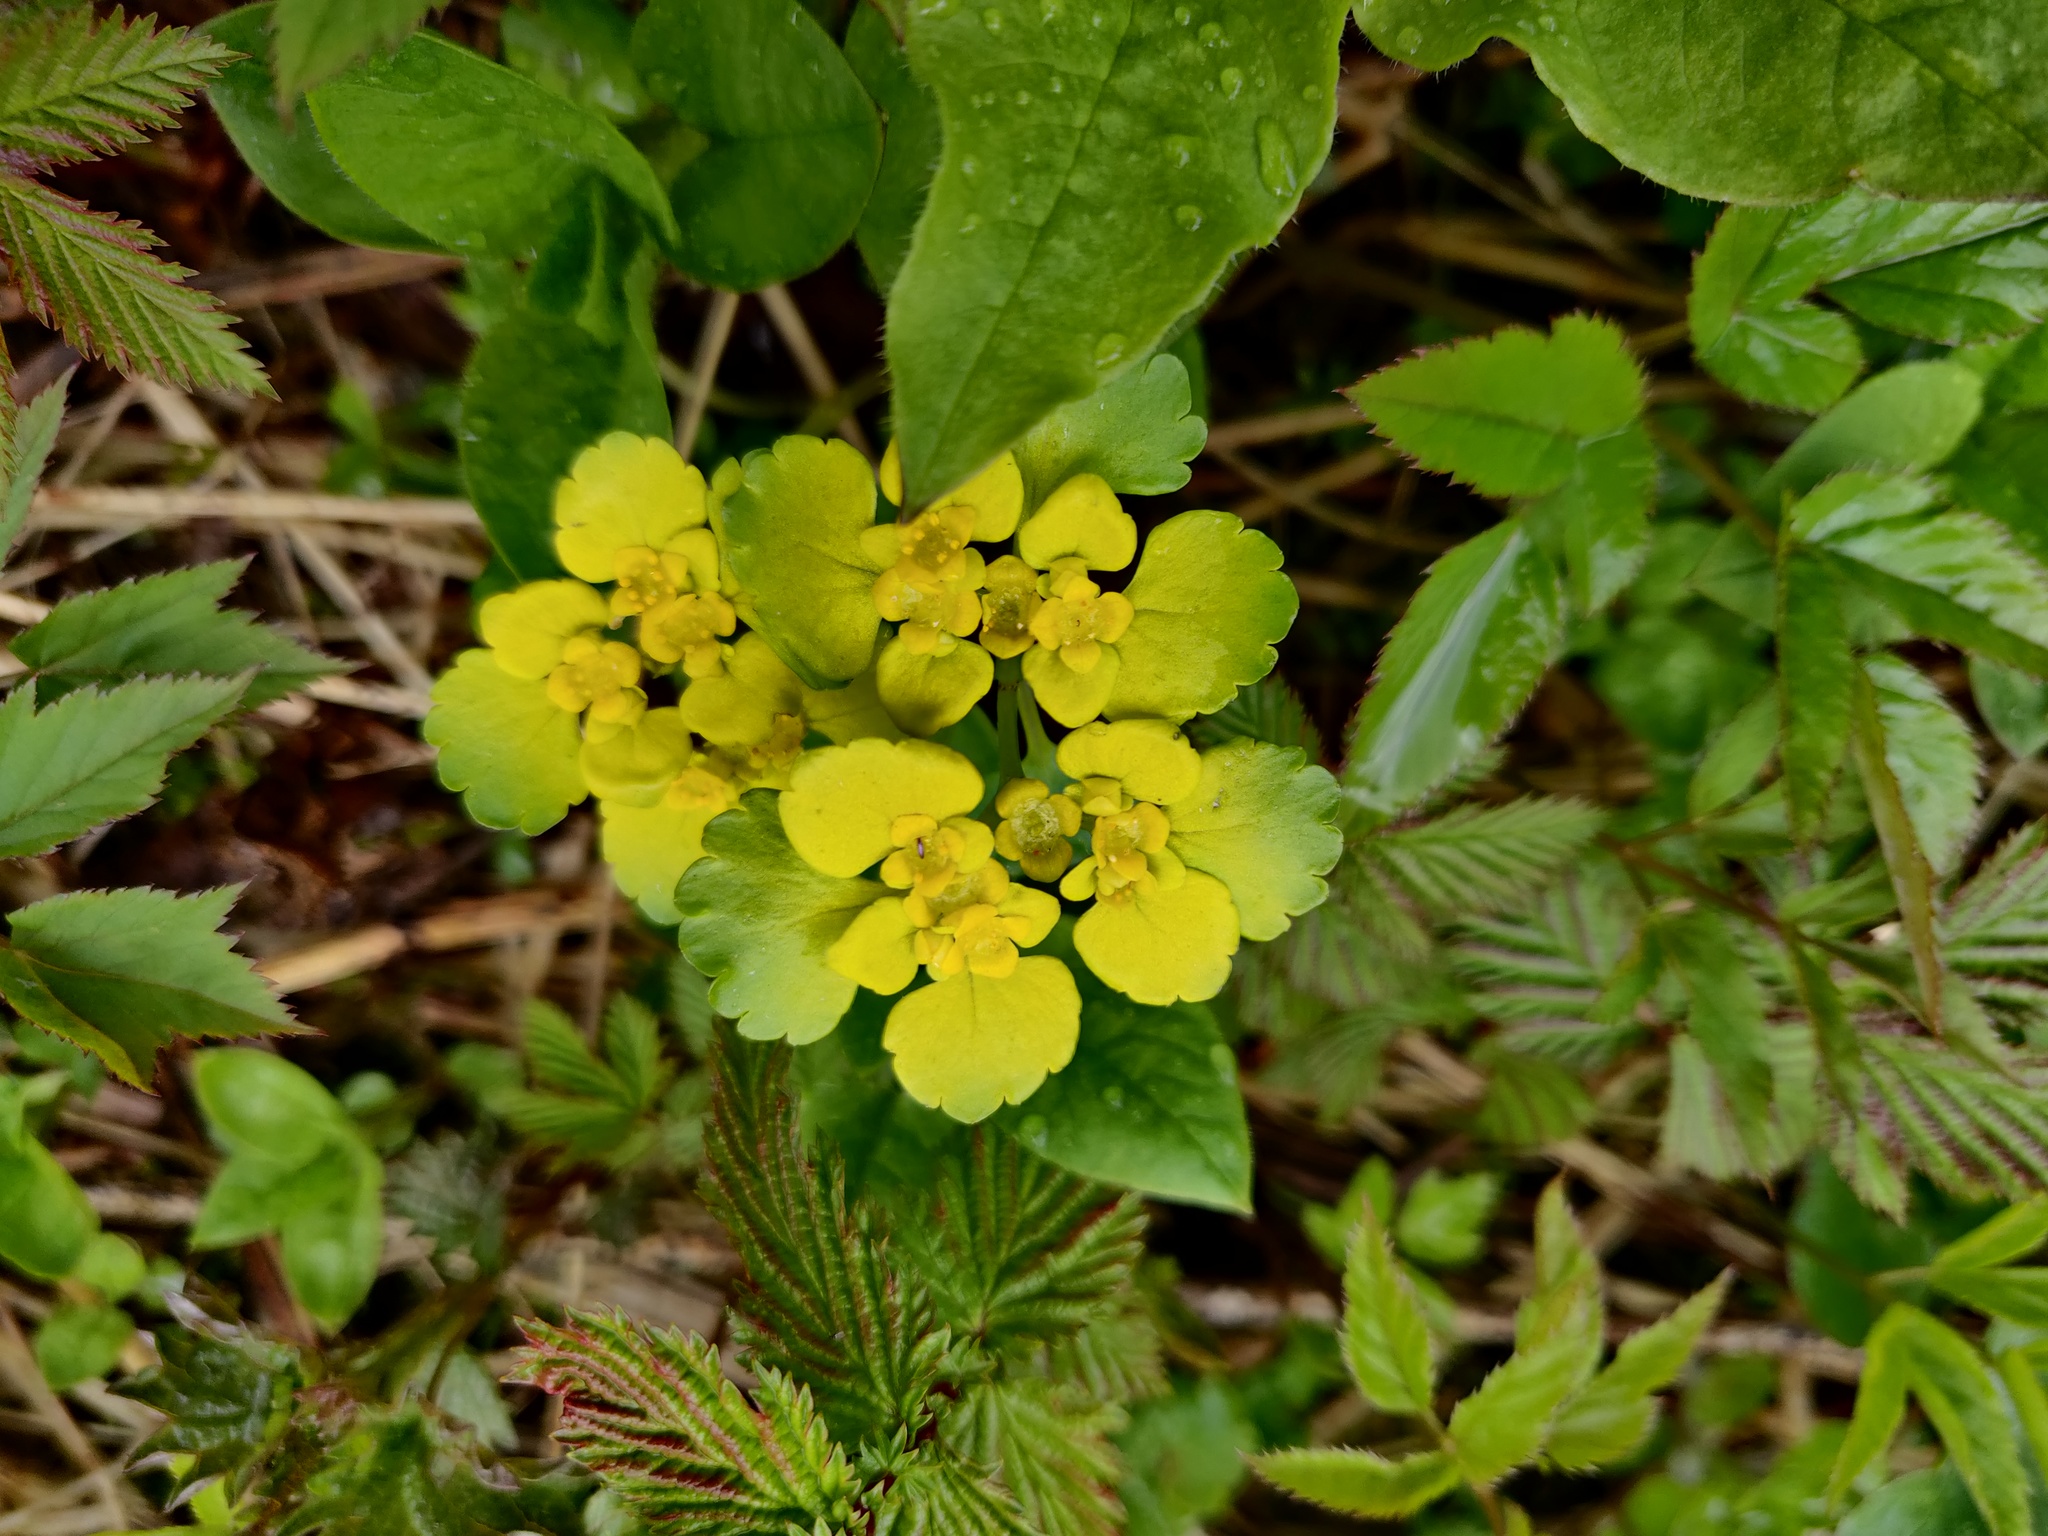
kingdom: Plantae
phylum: Tracheophyta
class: Magnoliopsida
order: Saxifragales
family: Saxifragaceae
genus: Chrysosplenium
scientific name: Chrysosplenium alternifolium
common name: Alternate-leaved golden-saxifrage
